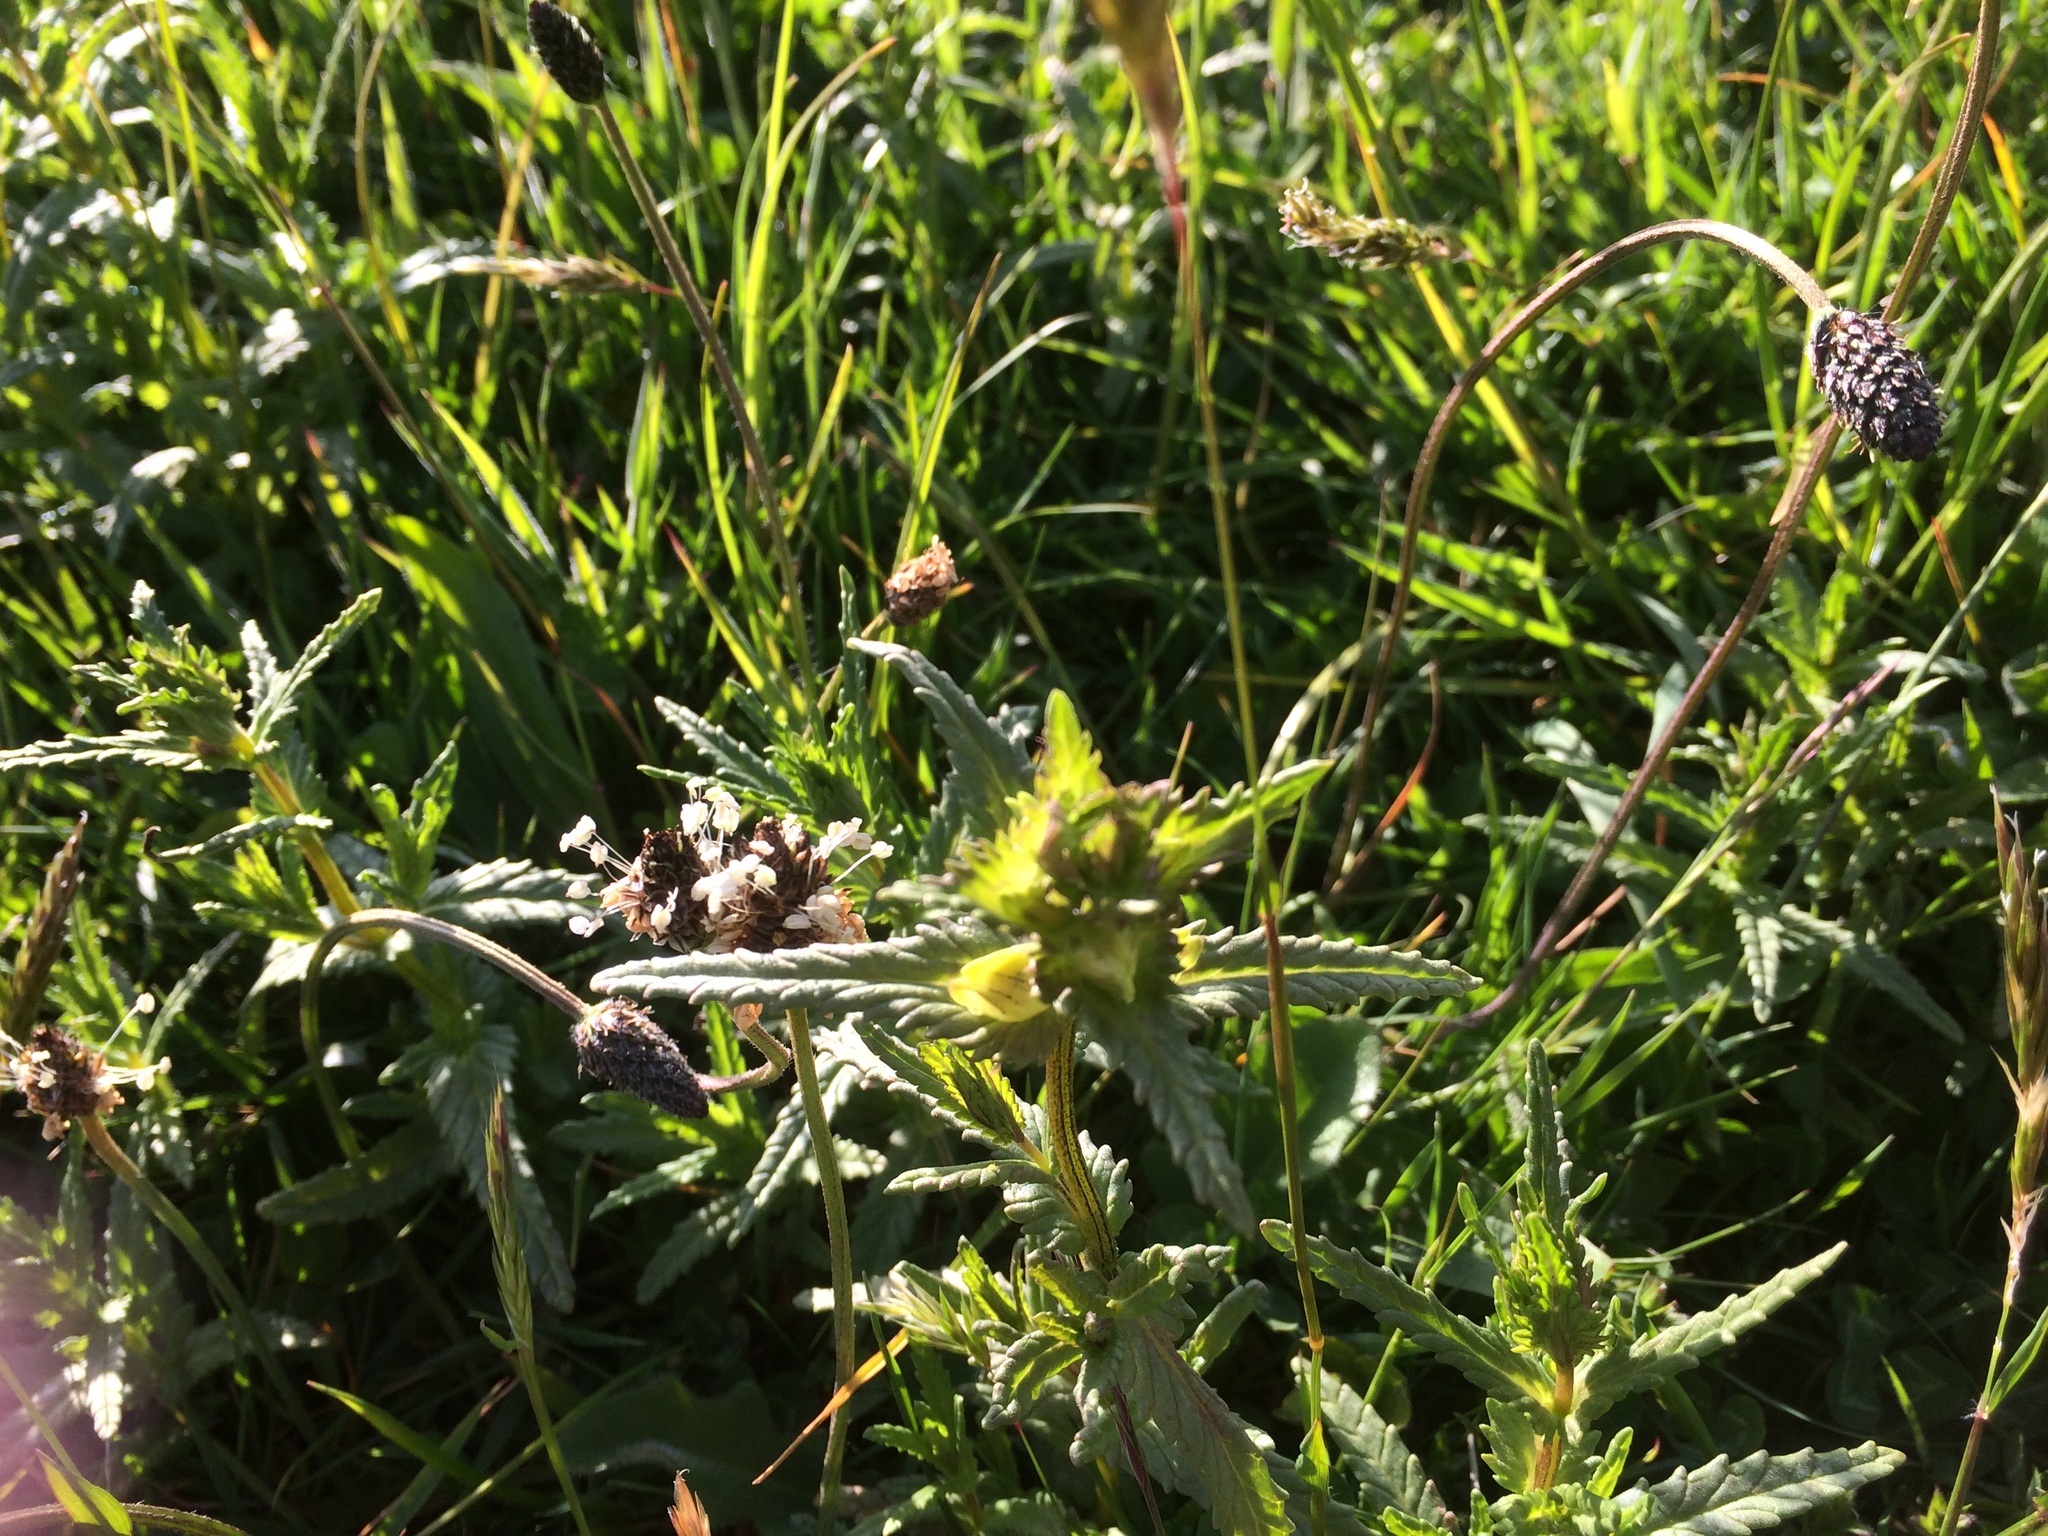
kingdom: Plantae
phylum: Tracheophyta
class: Magnoliopsida
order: Lamiales
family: Orobanchaceae
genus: Rhinanthus
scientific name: Rhinanthus minor
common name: Yellow-rattle
